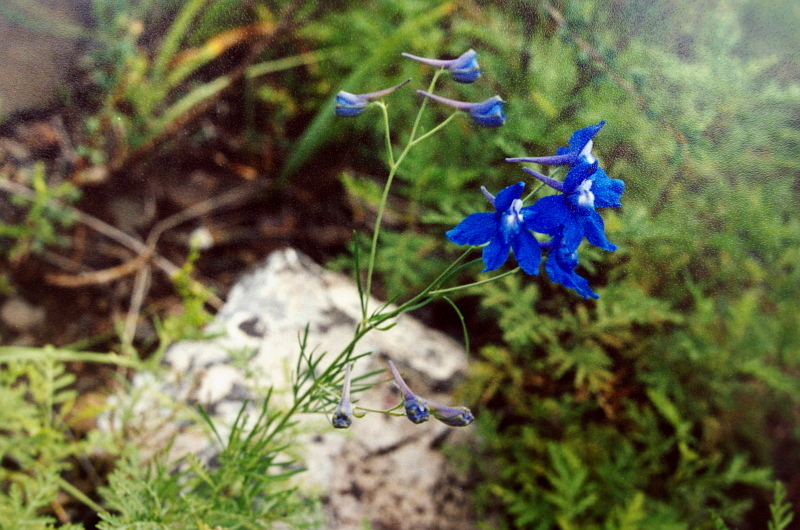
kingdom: Plantae
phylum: Tracheophyta
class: Magnoliopsida
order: Ranunculales
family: Ranunculaceae
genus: Delphinium
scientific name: Delphinium grandiflorum
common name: Siberian larkspur
